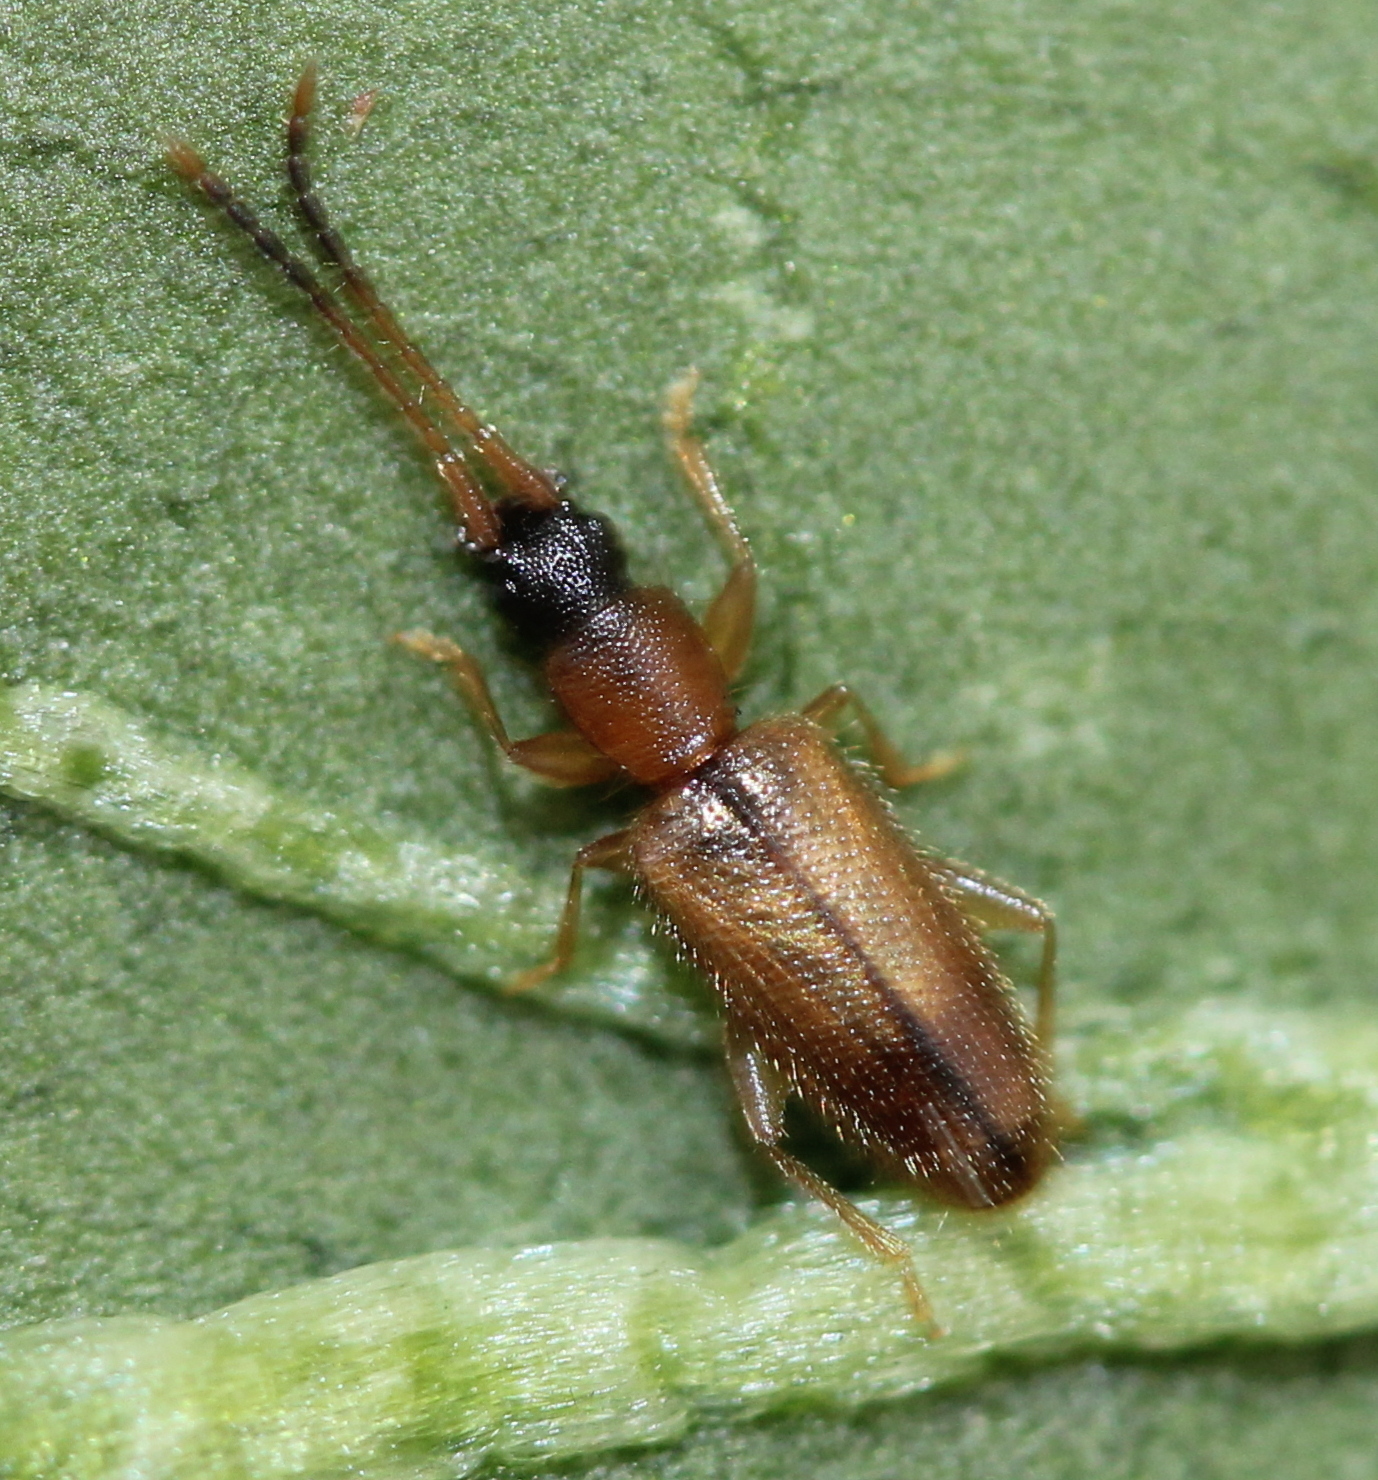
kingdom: Animalia
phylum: Arthropoda
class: Insecta
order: Coleoptera
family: Silvanidae
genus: Telephanus
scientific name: Telephanus velox
